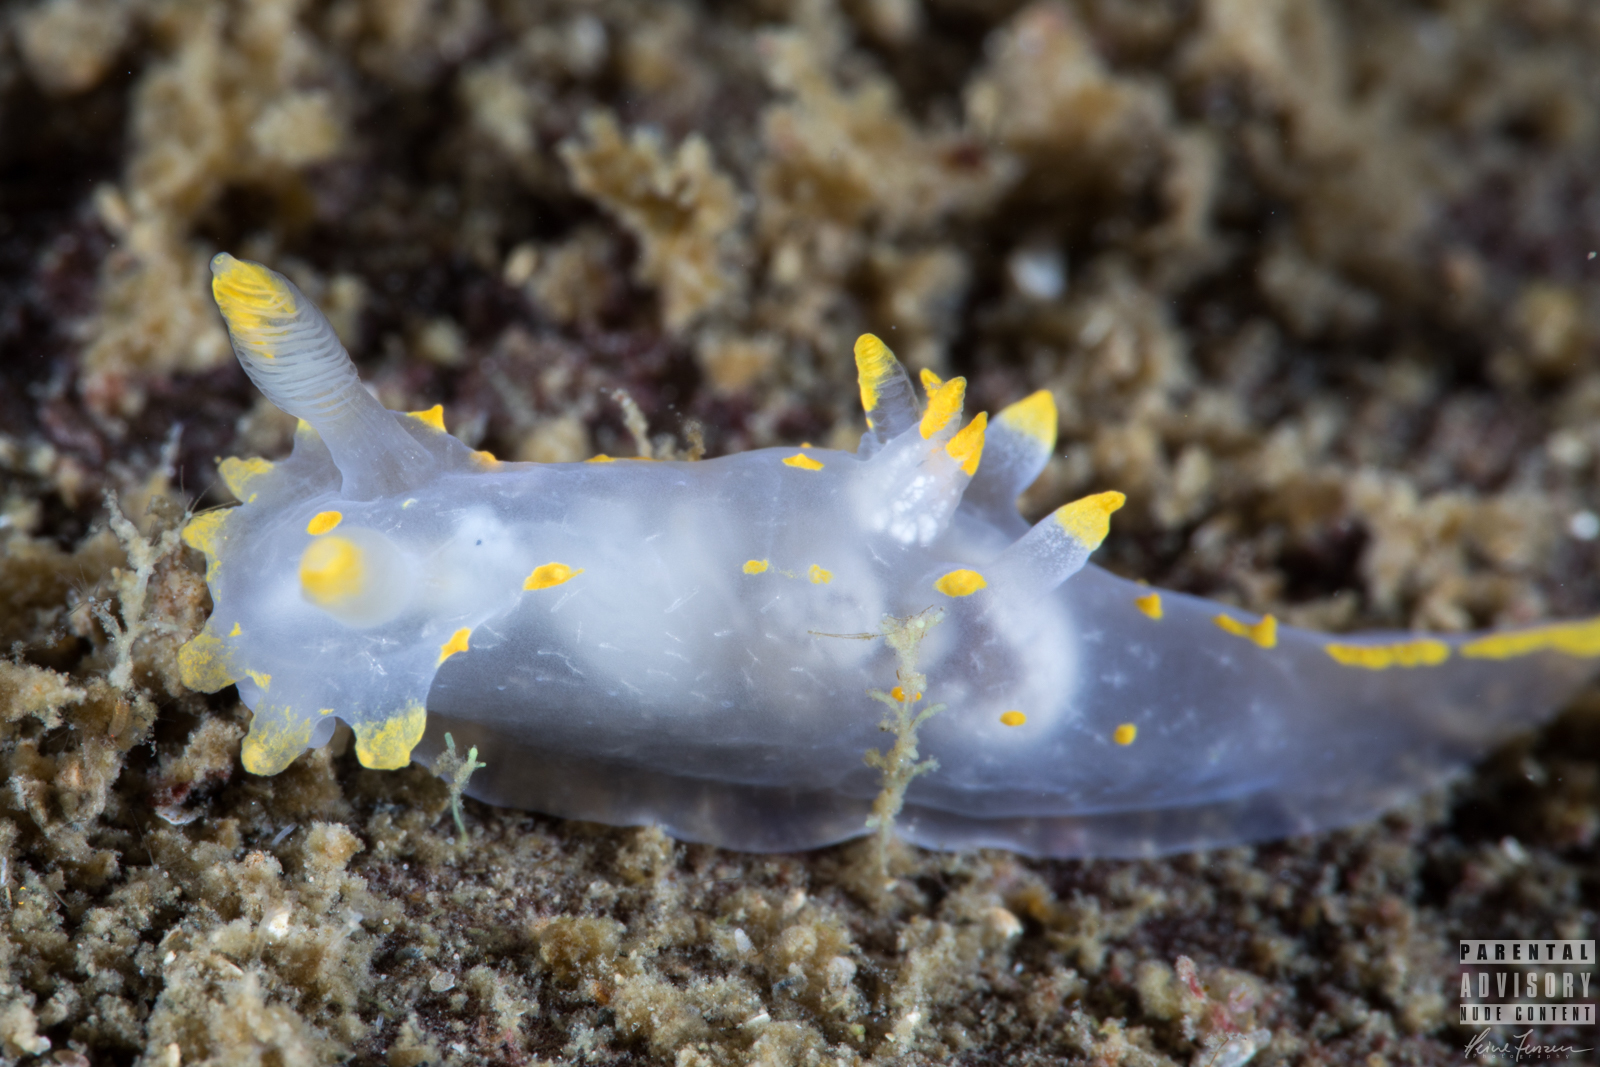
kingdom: Animalia
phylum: Mollusca
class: Gastropoda
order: Nudibranchia
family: Polyceridae
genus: Polycera
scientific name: Polycera quadrilineata
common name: Four-striped polycera
